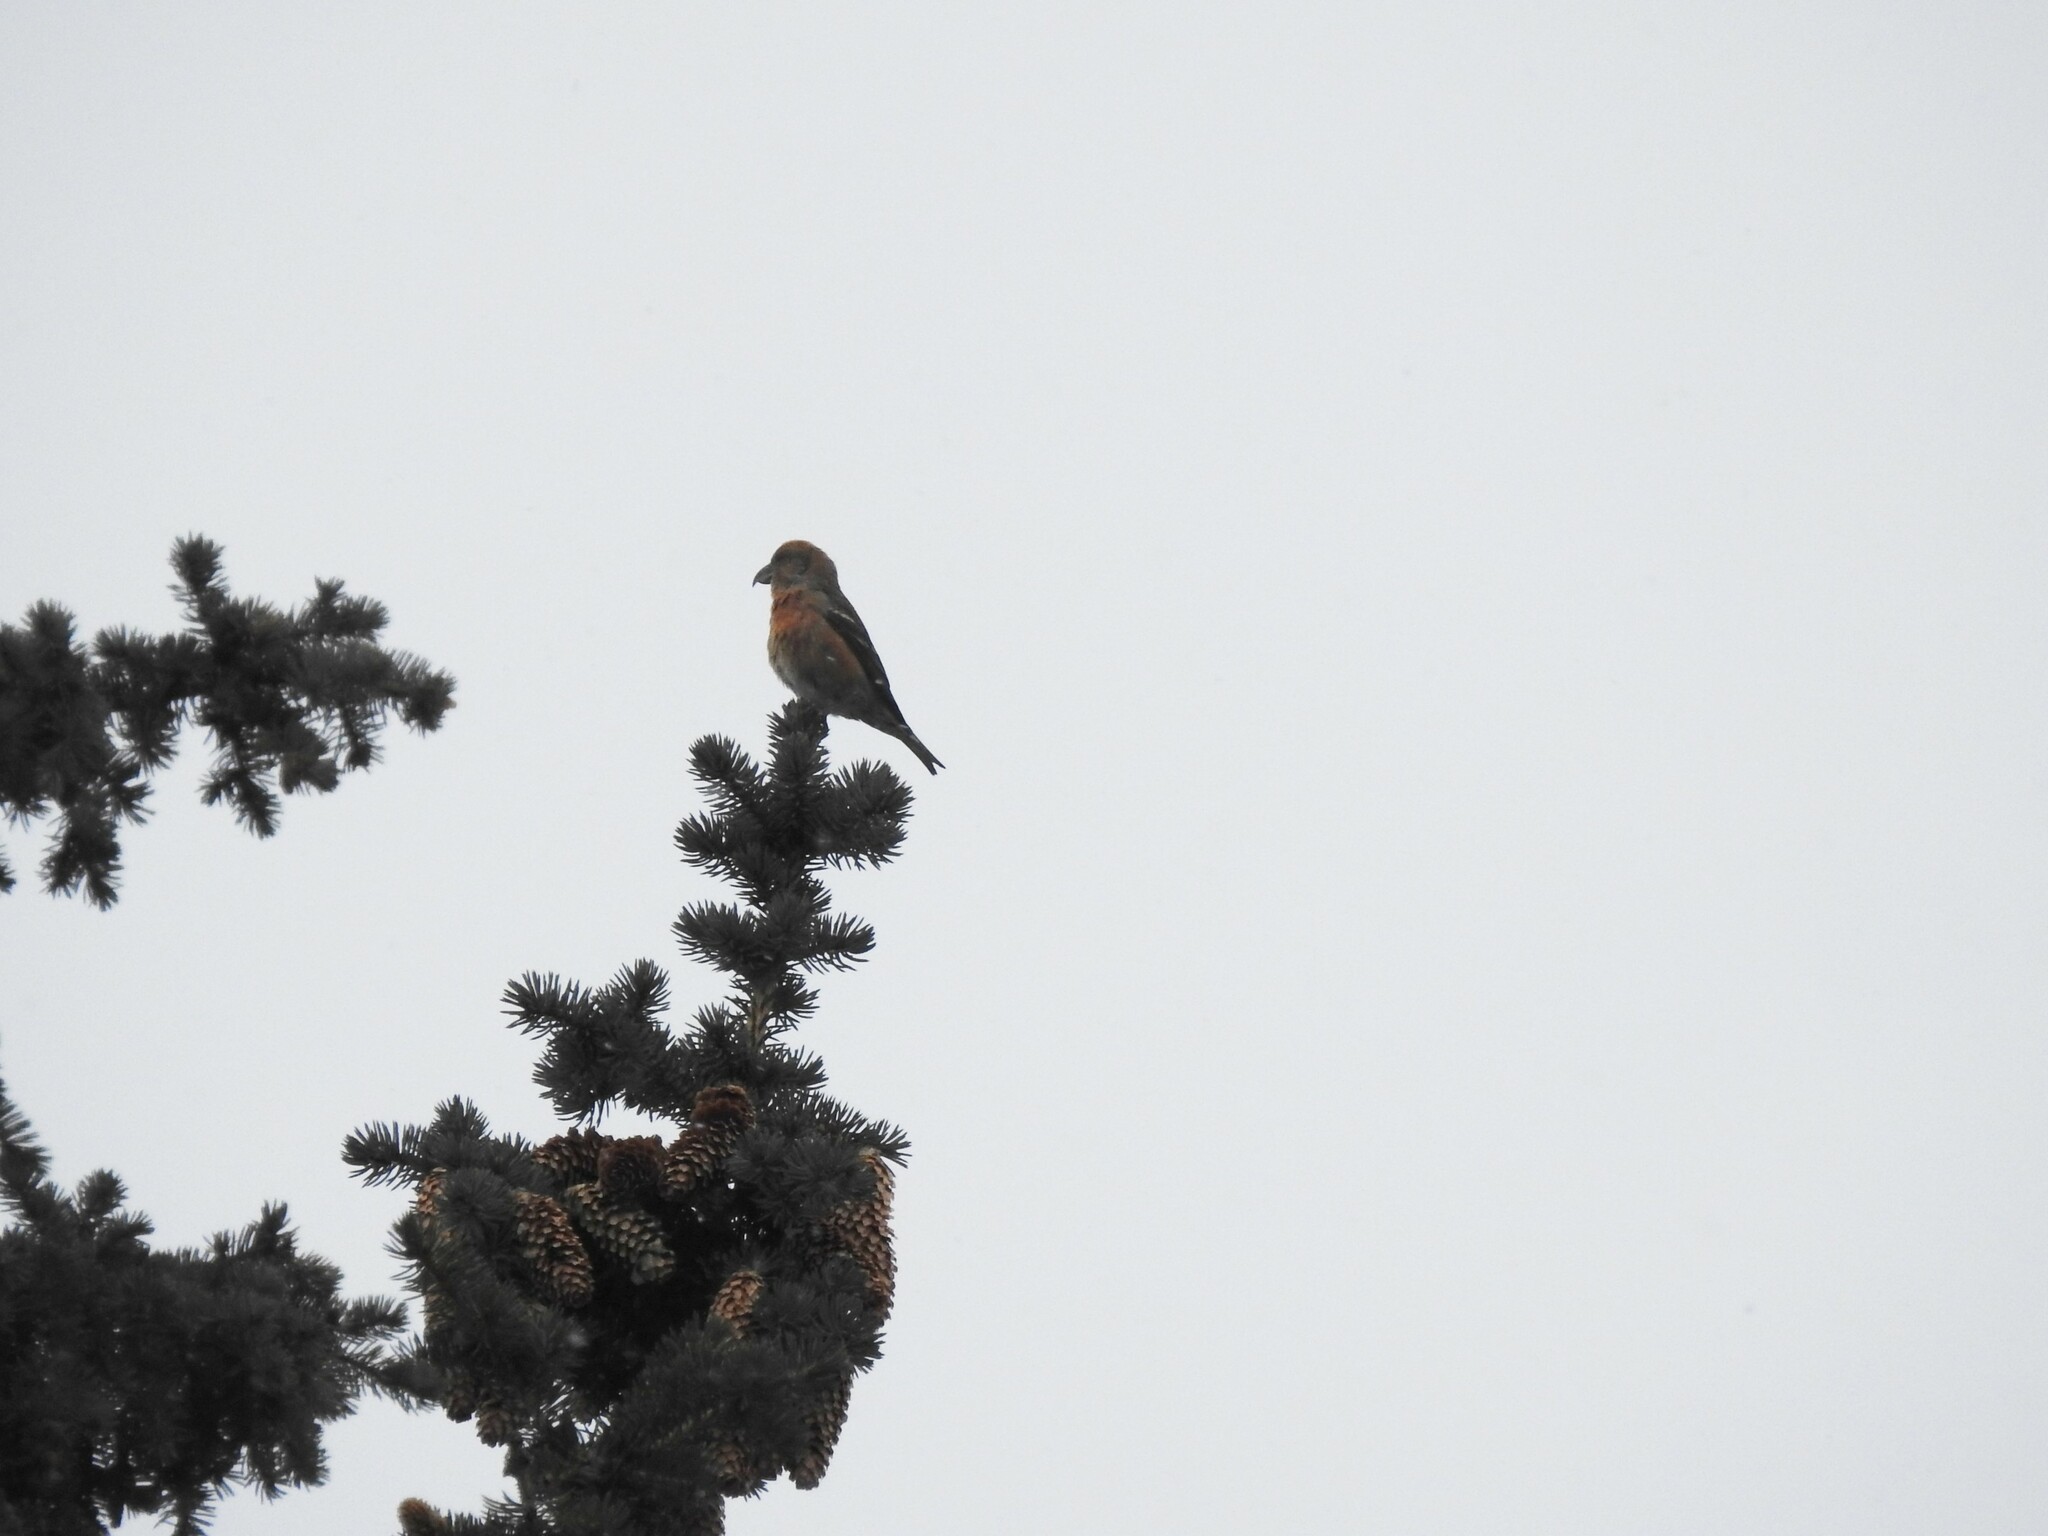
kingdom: Animalia
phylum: Chordata
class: Aves
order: Passeriformes
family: Fringillidae
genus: Loxia
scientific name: Loxia curvirostra
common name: Red crossbill
